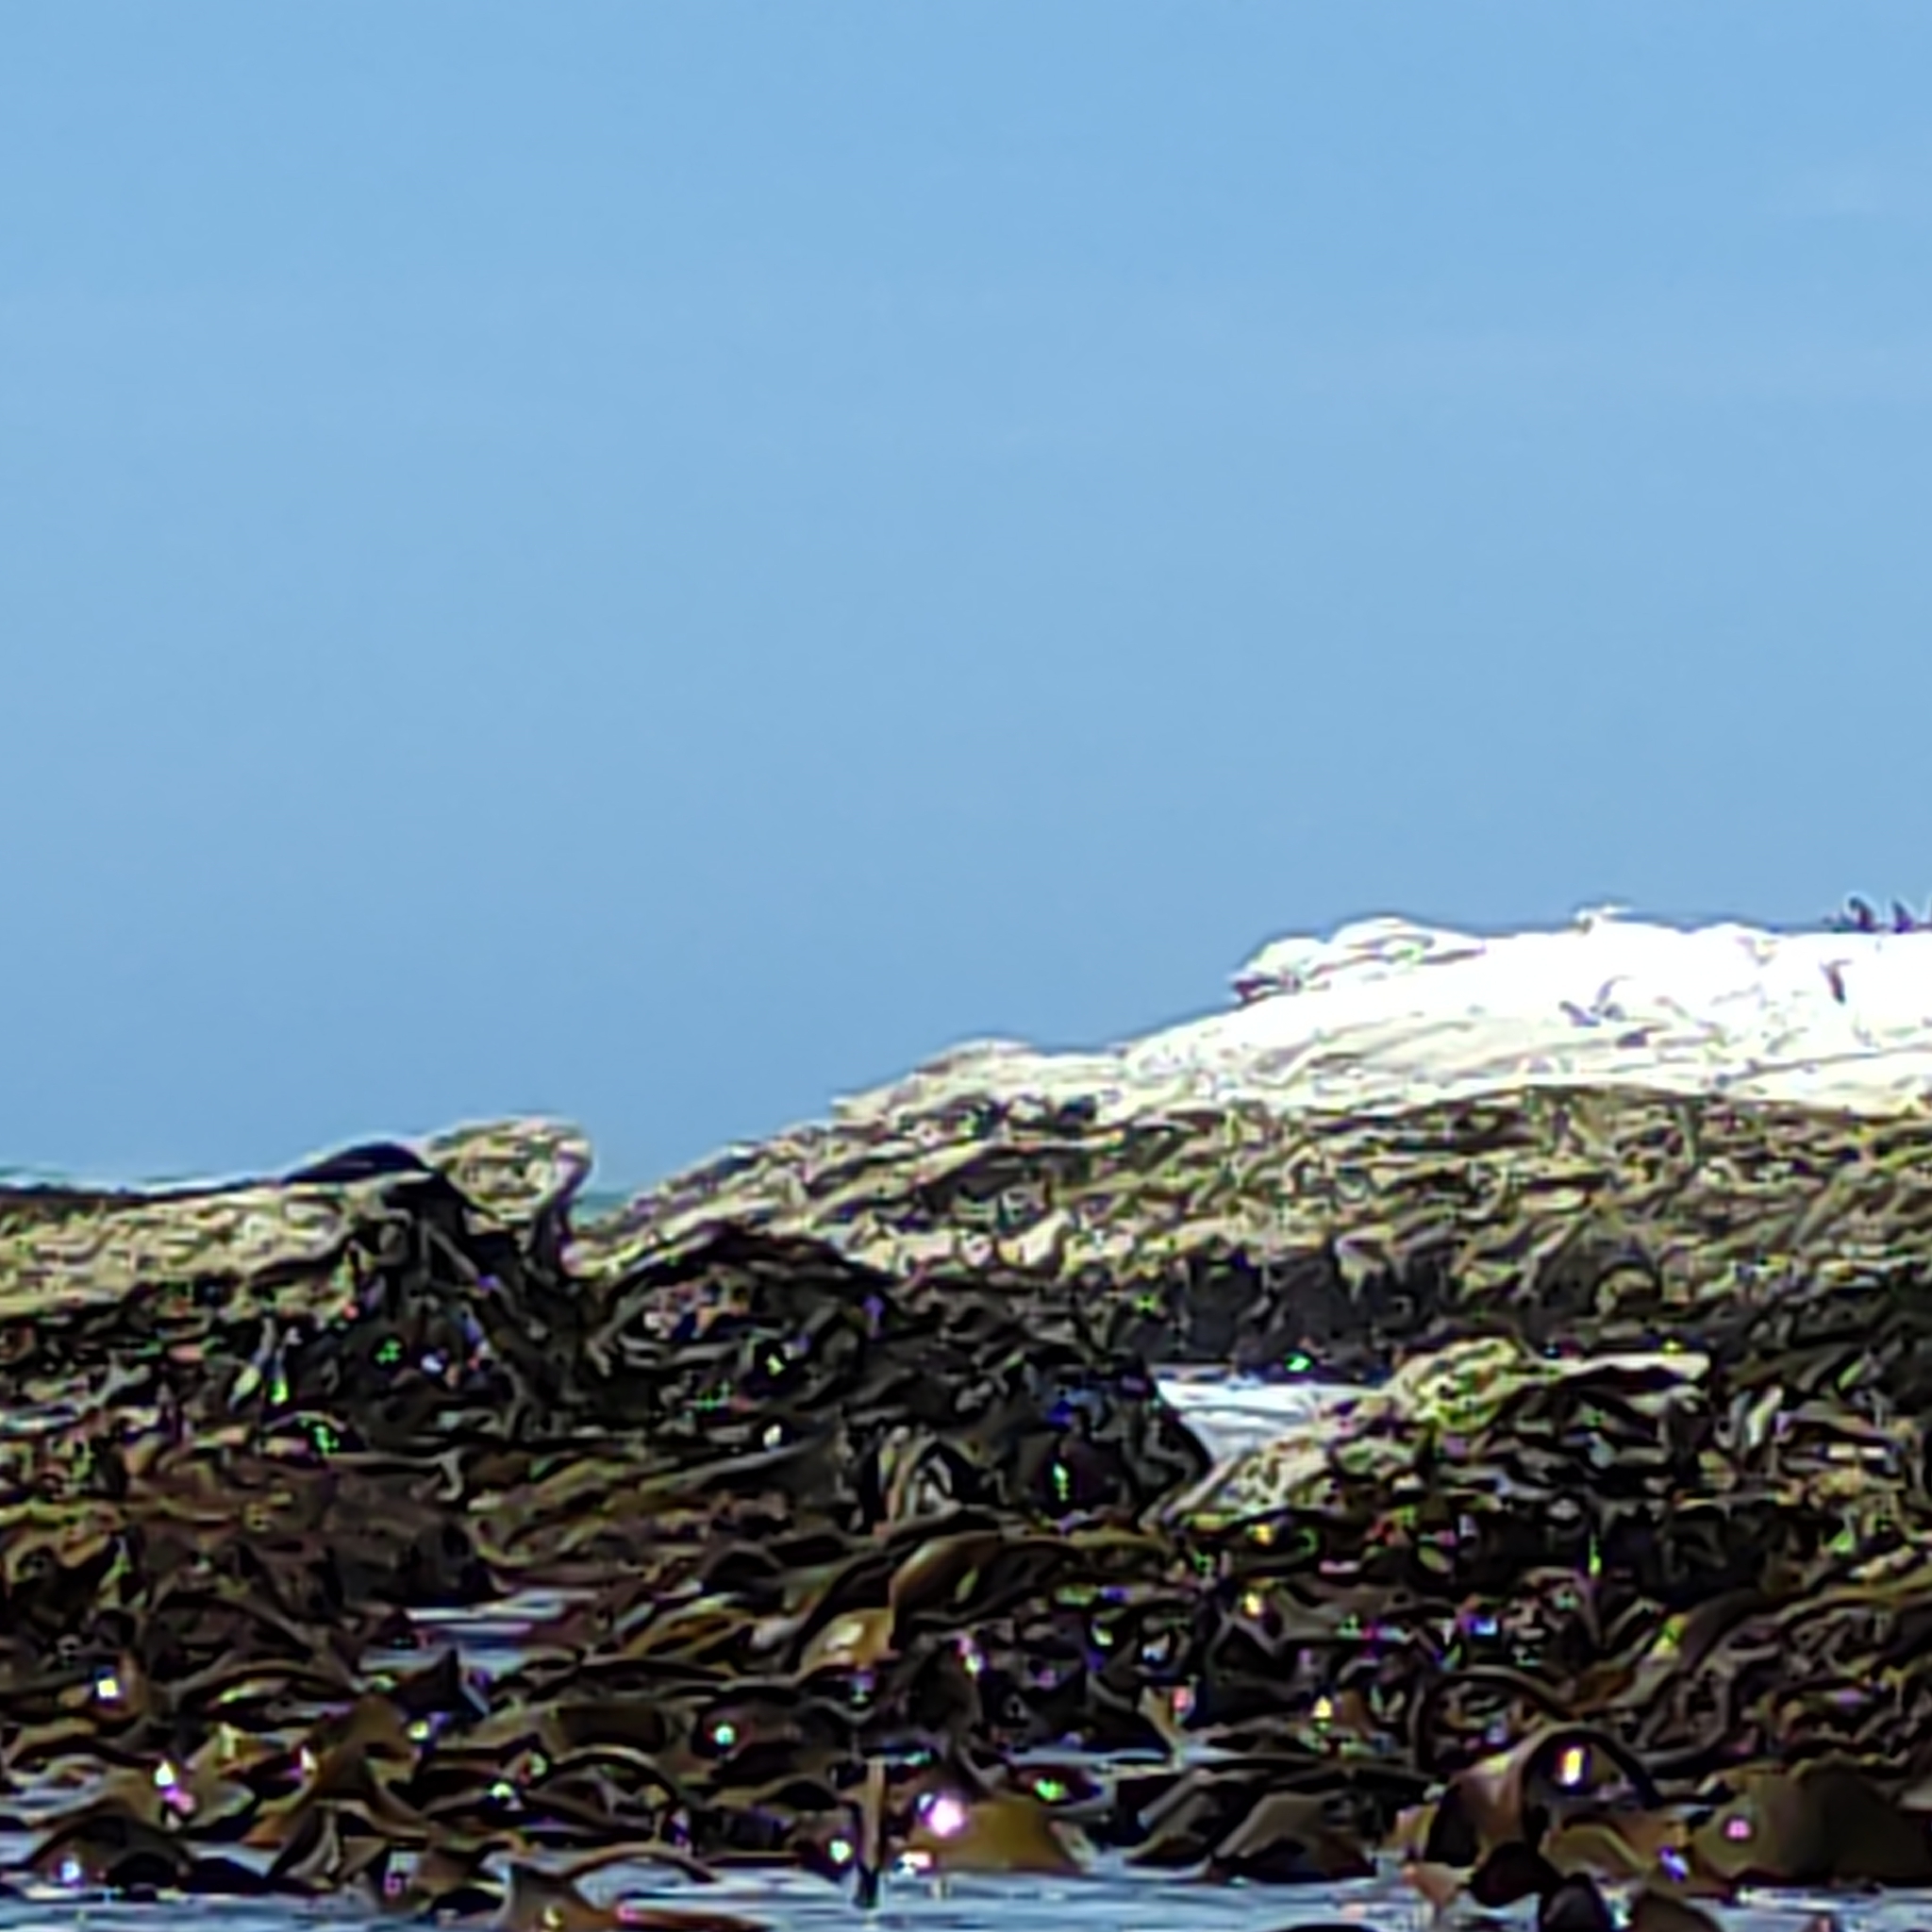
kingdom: Animalia
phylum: Chordata
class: Aves
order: Charadriiformes
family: Laridae
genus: Sterna
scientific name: Sterna striata
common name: White-fronted tern
